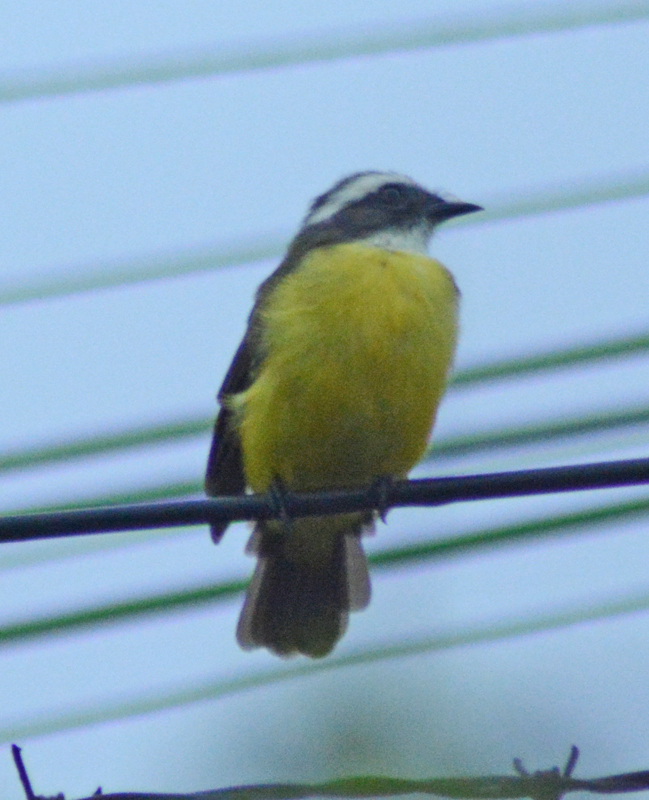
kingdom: Animalia
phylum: Chordata
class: Aves
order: Passeriformes
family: Tyrannidae
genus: Myiozetetes
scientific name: Myiozetetes similis
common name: Social flycatcher
